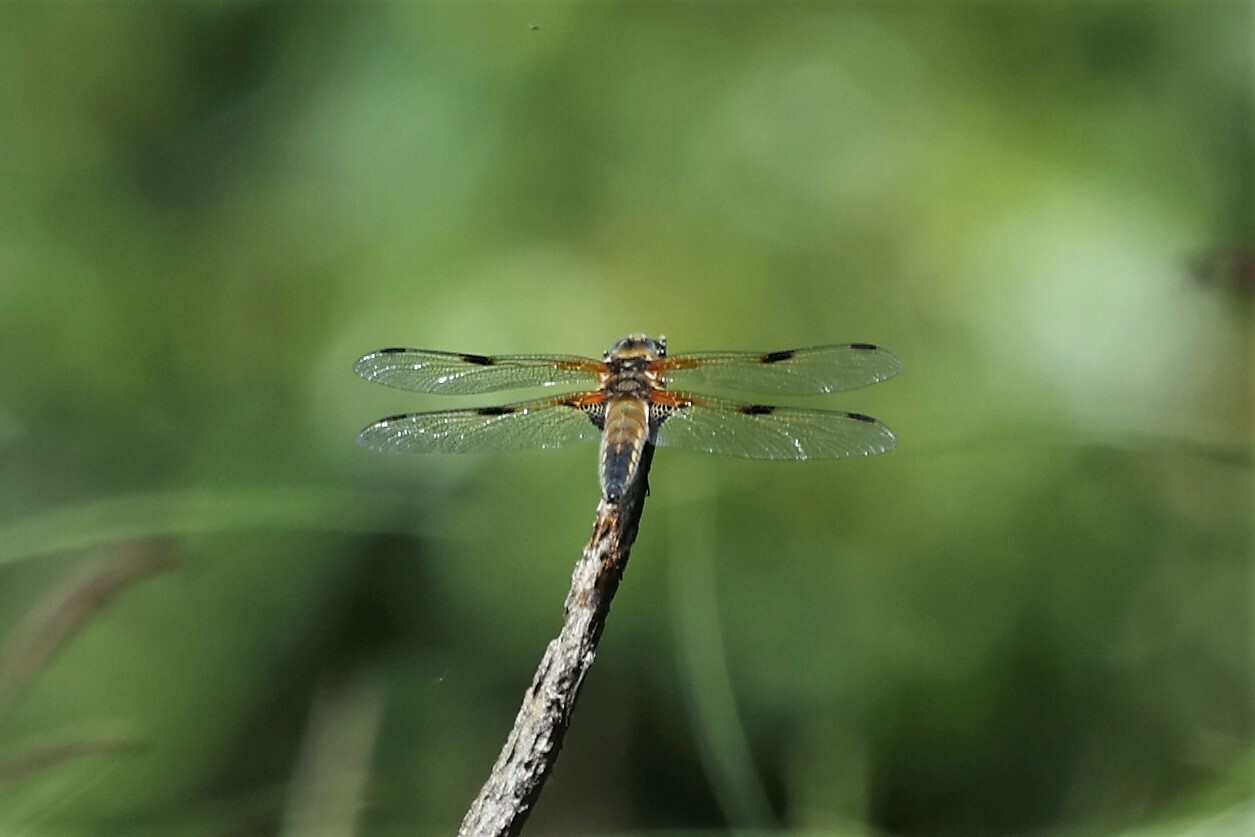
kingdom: Animalia
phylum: Arthropoda
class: Insecta
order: Odonata
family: Libellulidae
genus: Libellula
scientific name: Libellula quadrimaculata
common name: Four-spotted chaser
